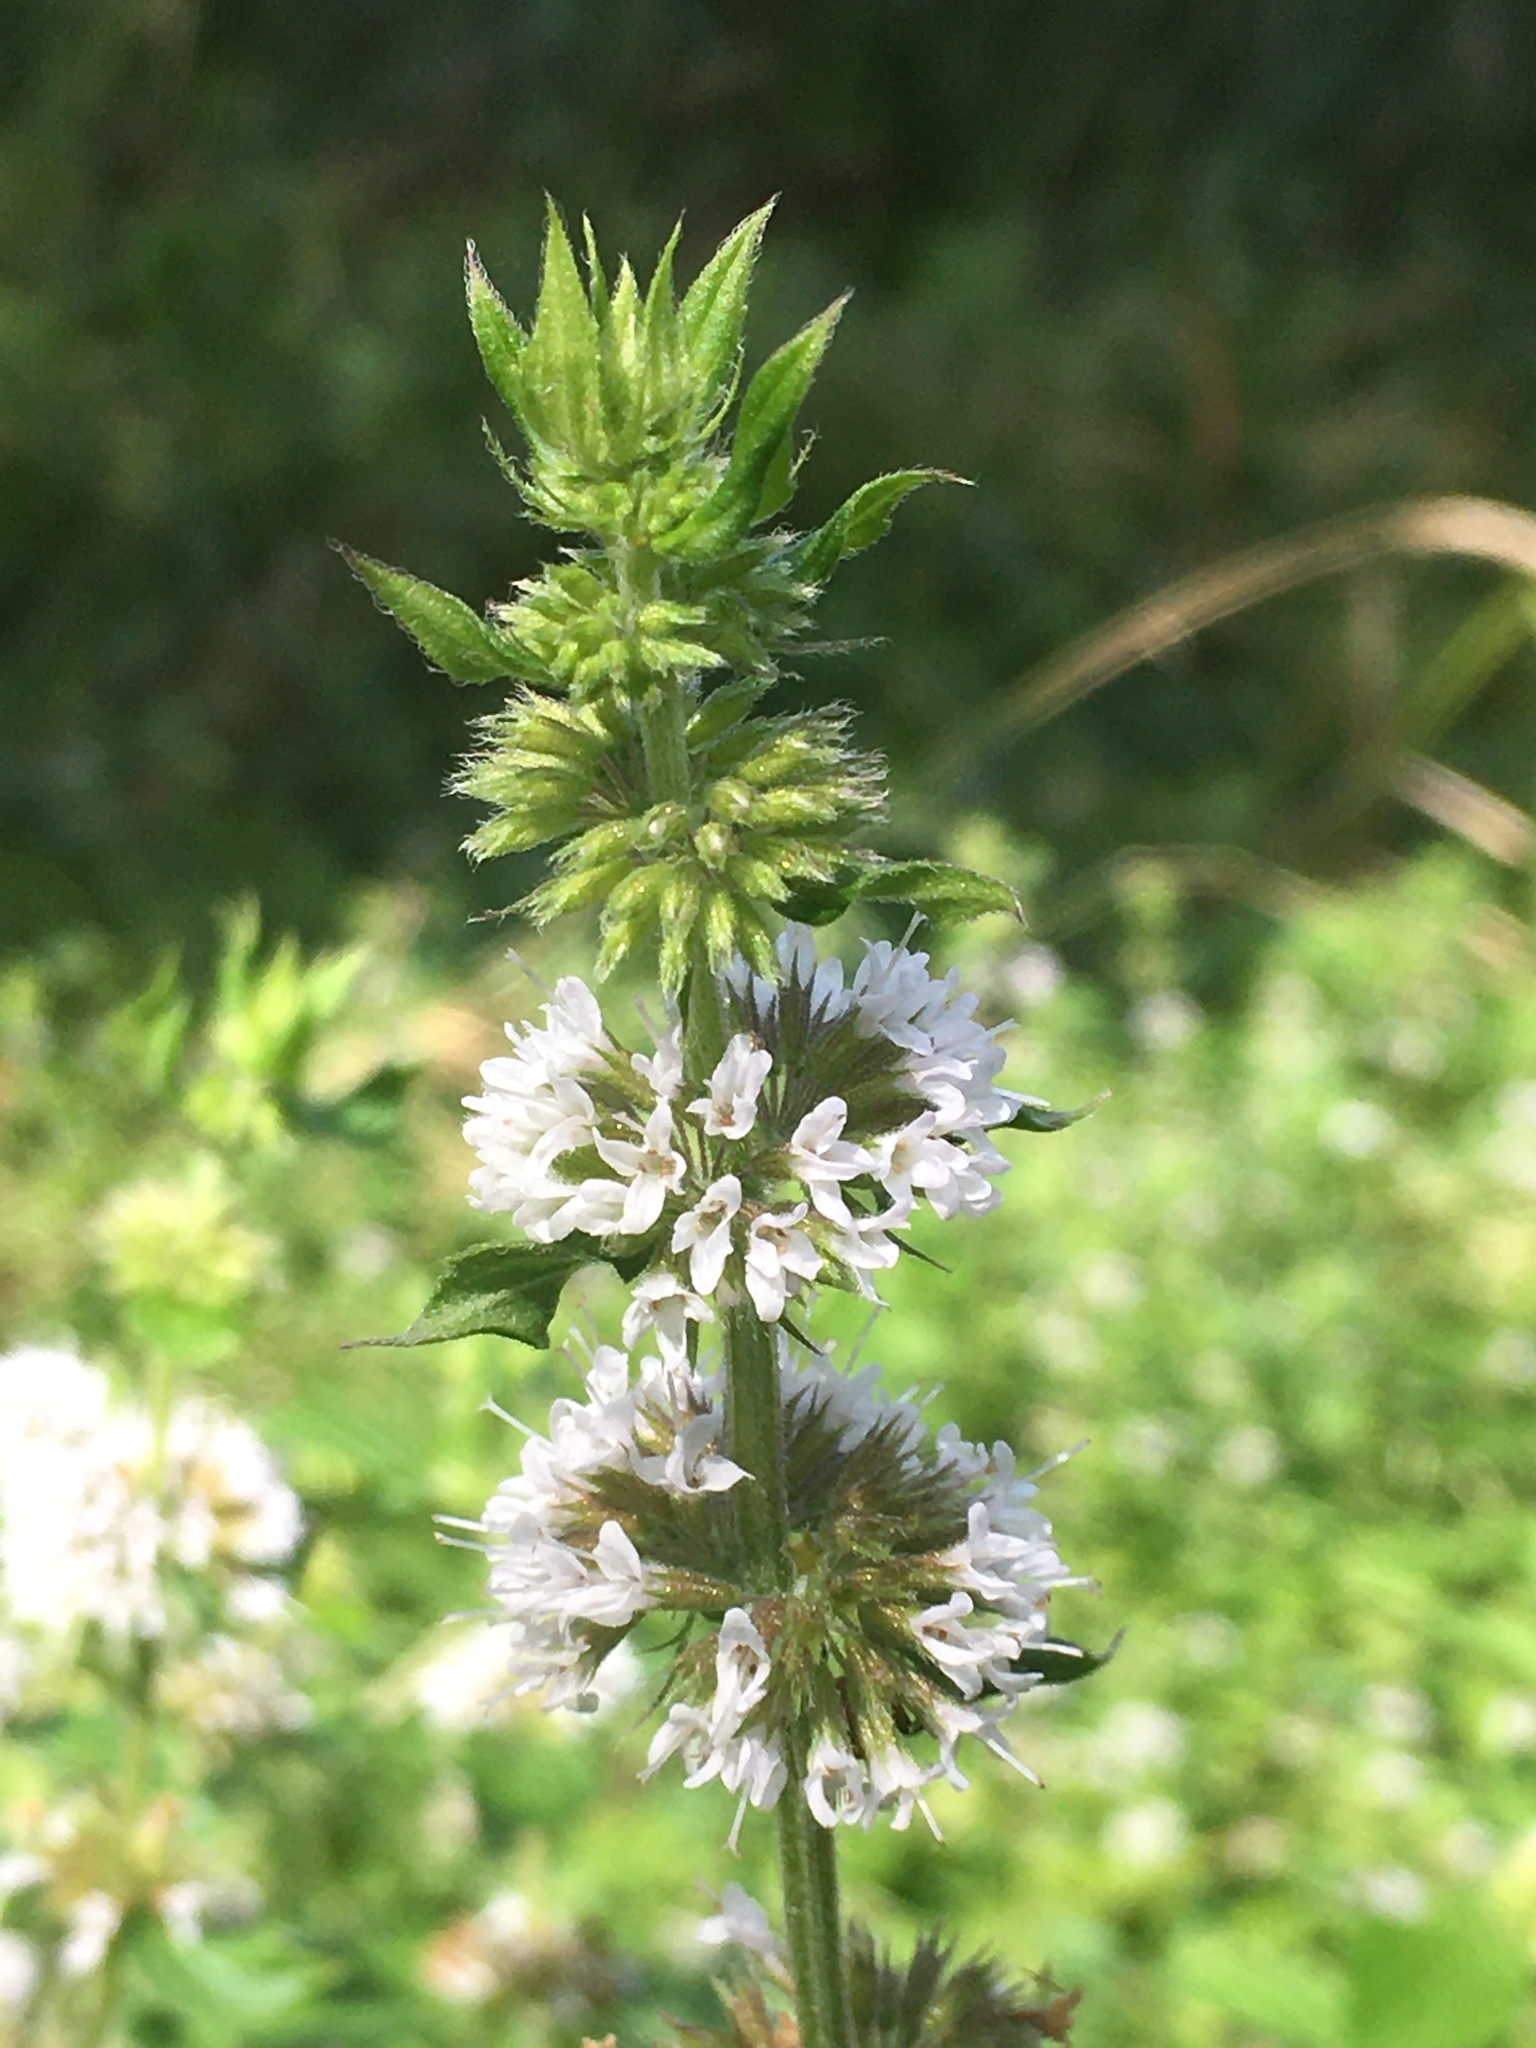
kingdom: Plantae
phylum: Tracheophyta
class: Magnoliopsida
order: Lamiales
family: Lamiaceae
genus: Mentha
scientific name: Mentha arvensis
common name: Corn mint
